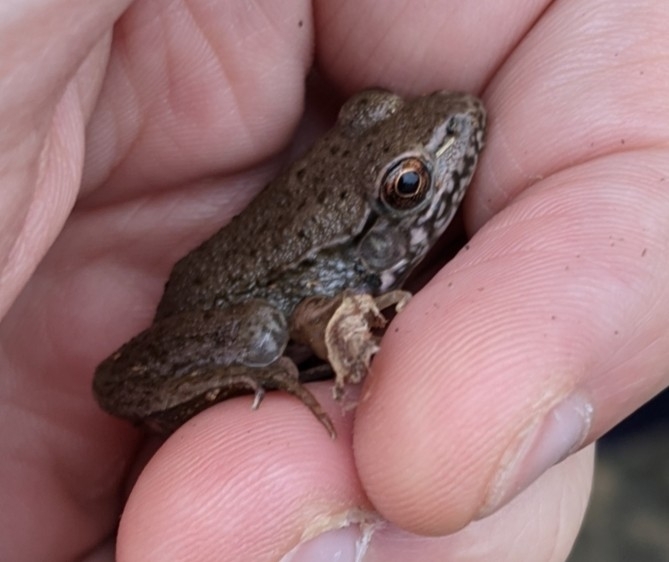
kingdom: Animalia
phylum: Chordata
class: Amphibia
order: Anura
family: Ranidae
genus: Lithobates
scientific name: Lithobates clamitans
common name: Green frog
